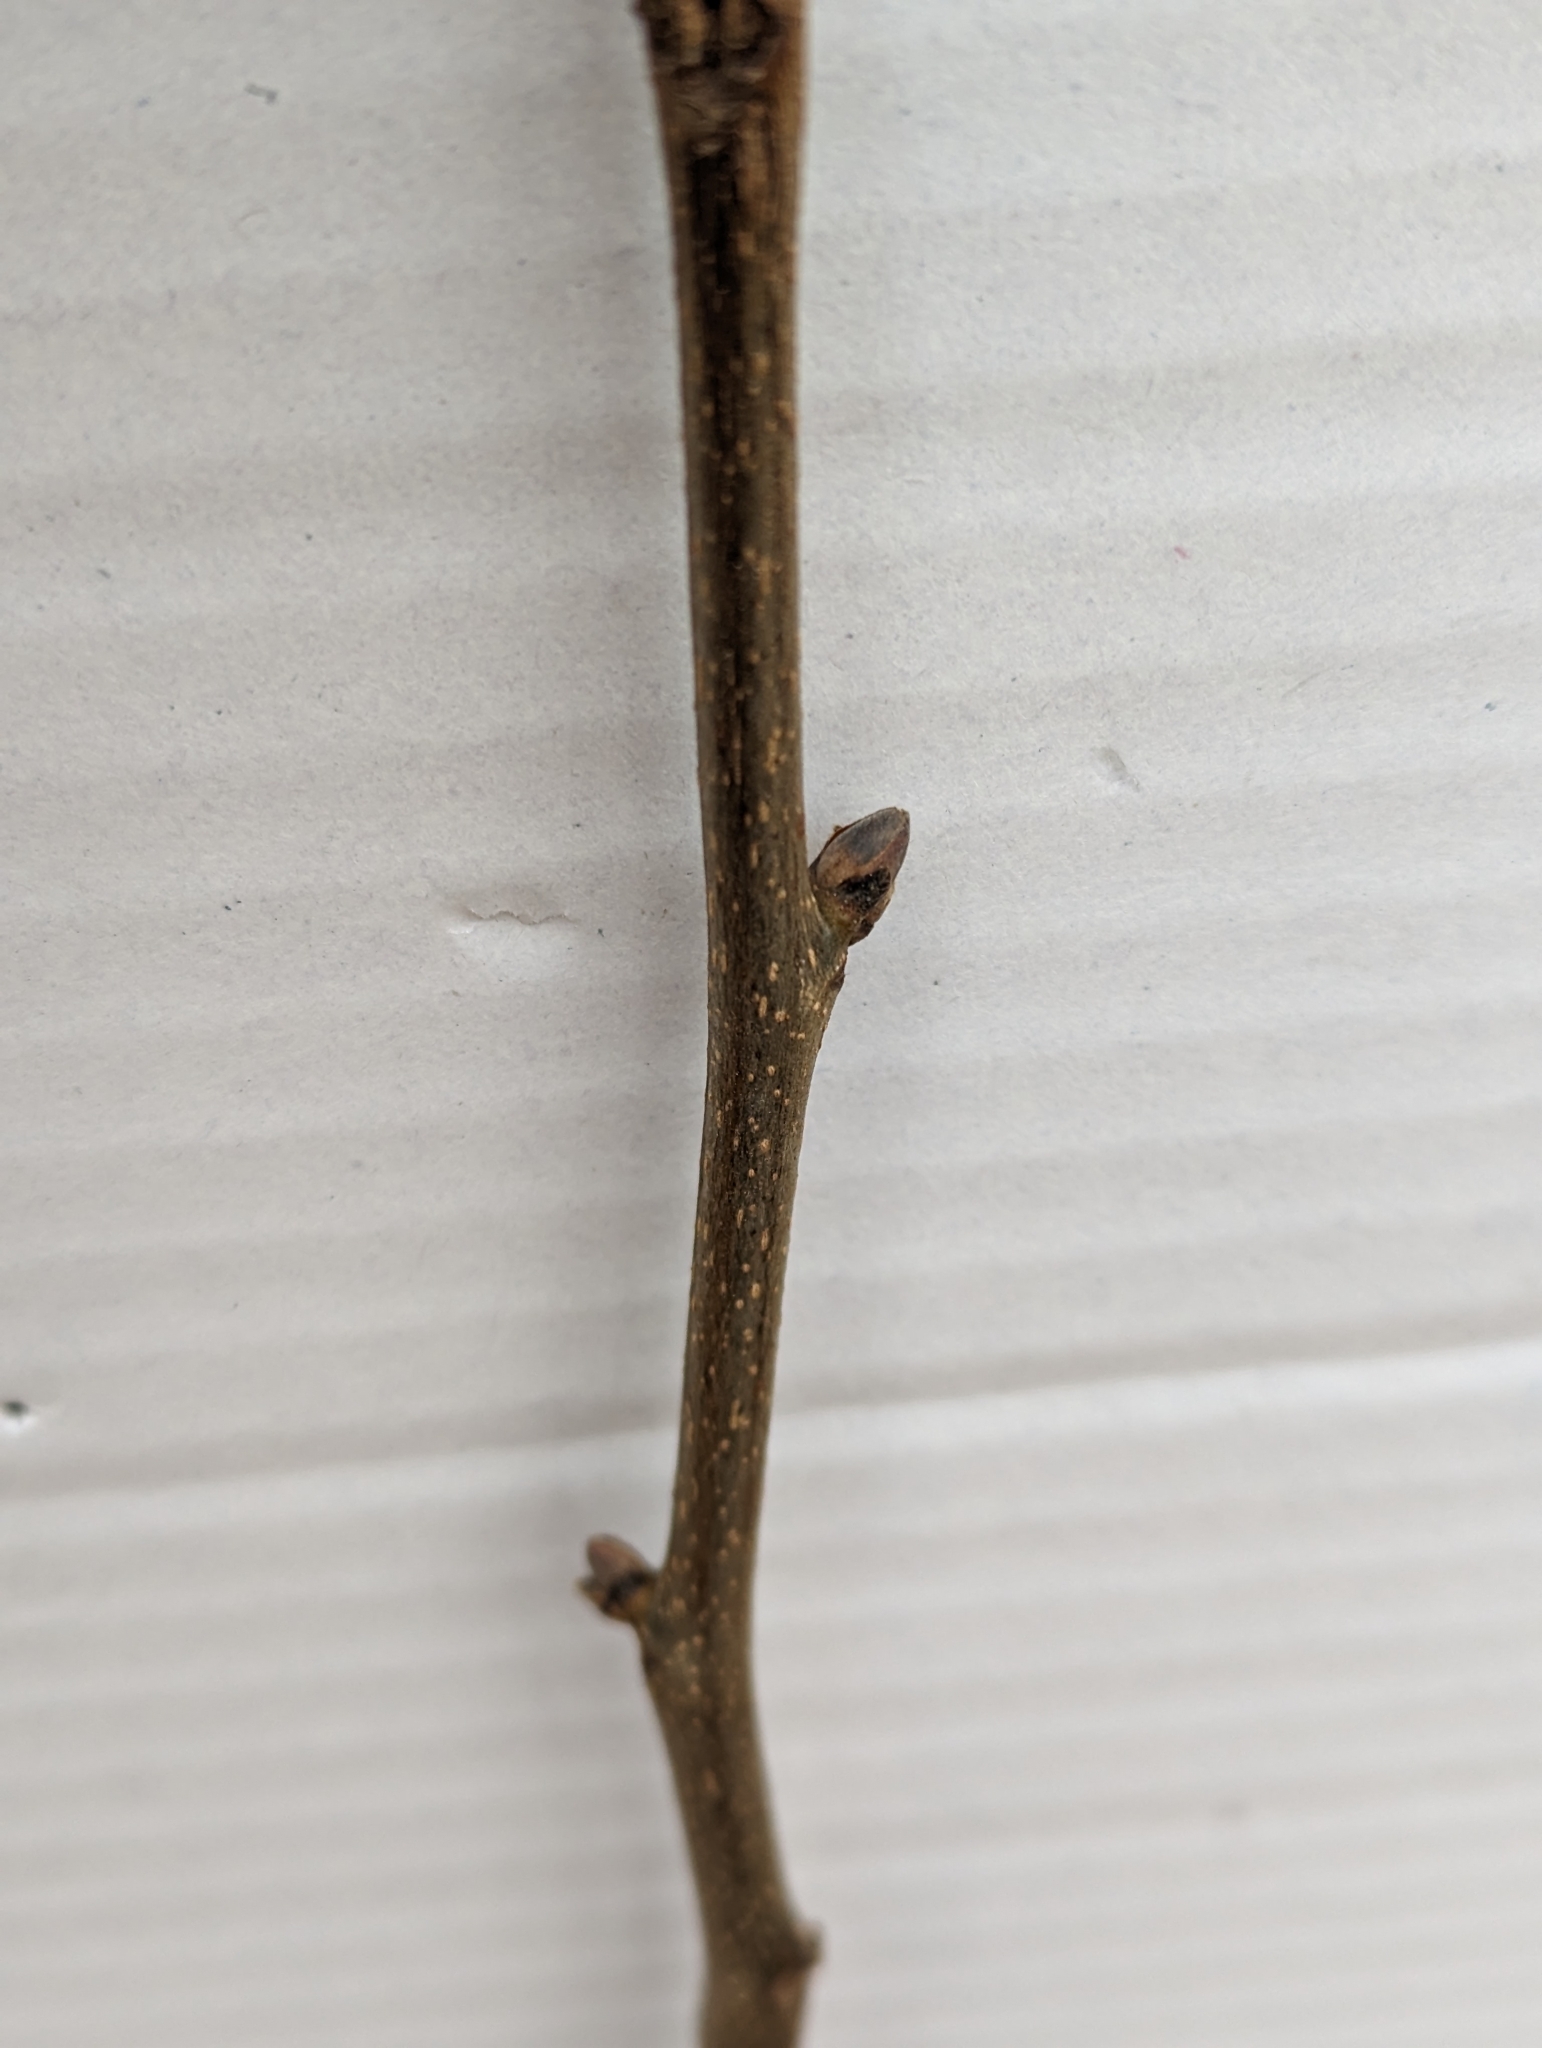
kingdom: Plantae
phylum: Tracheophyta
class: Magnoliopsida
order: Fagales
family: Juglandaceae
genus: Carya
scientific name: Carya ovata
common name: Shagbark hickory
